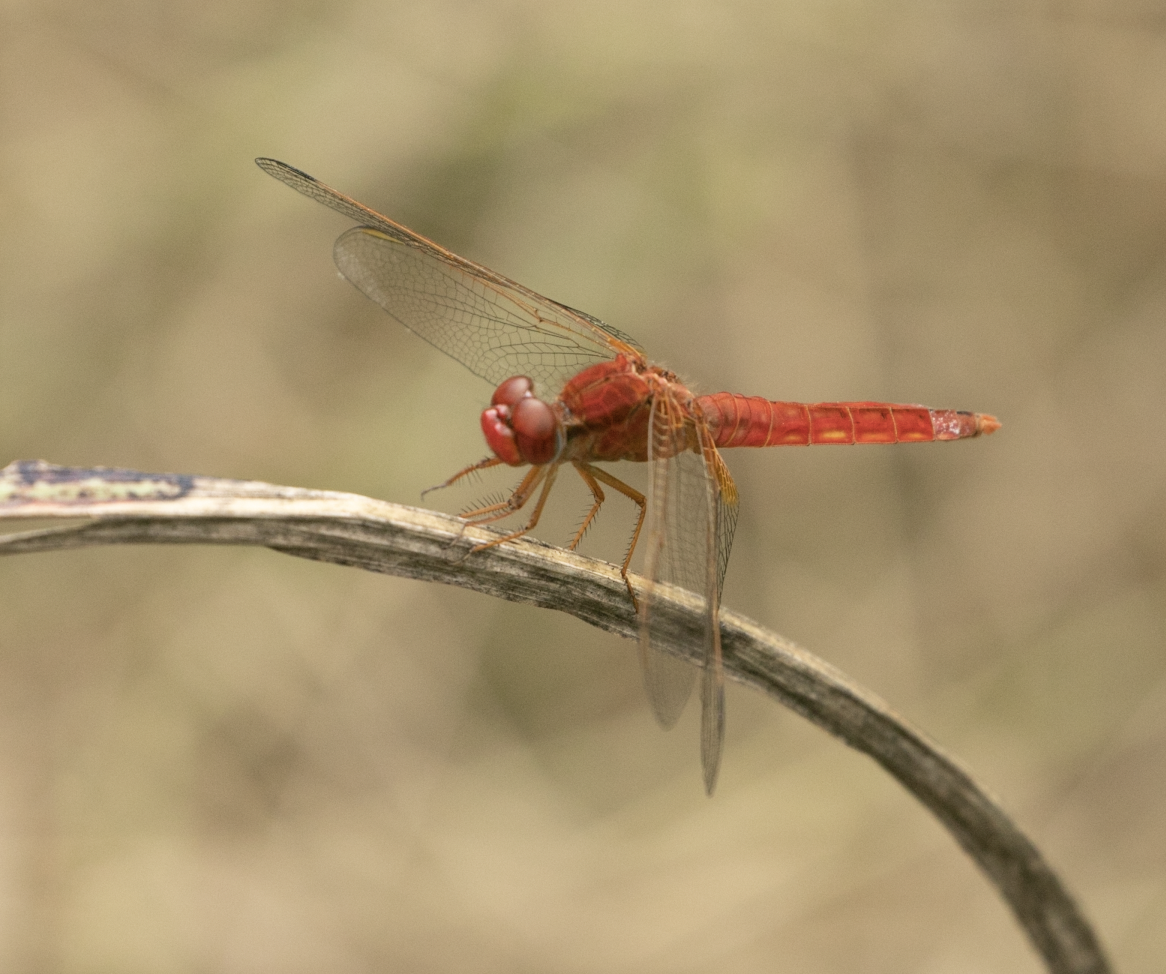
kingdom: Animalia
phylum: Arthropoda
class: Insecta
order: Odonata
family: Libellulidae
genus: Crocothemis
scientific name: Crocothemis erythraea
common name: Scarlet dragonfly
